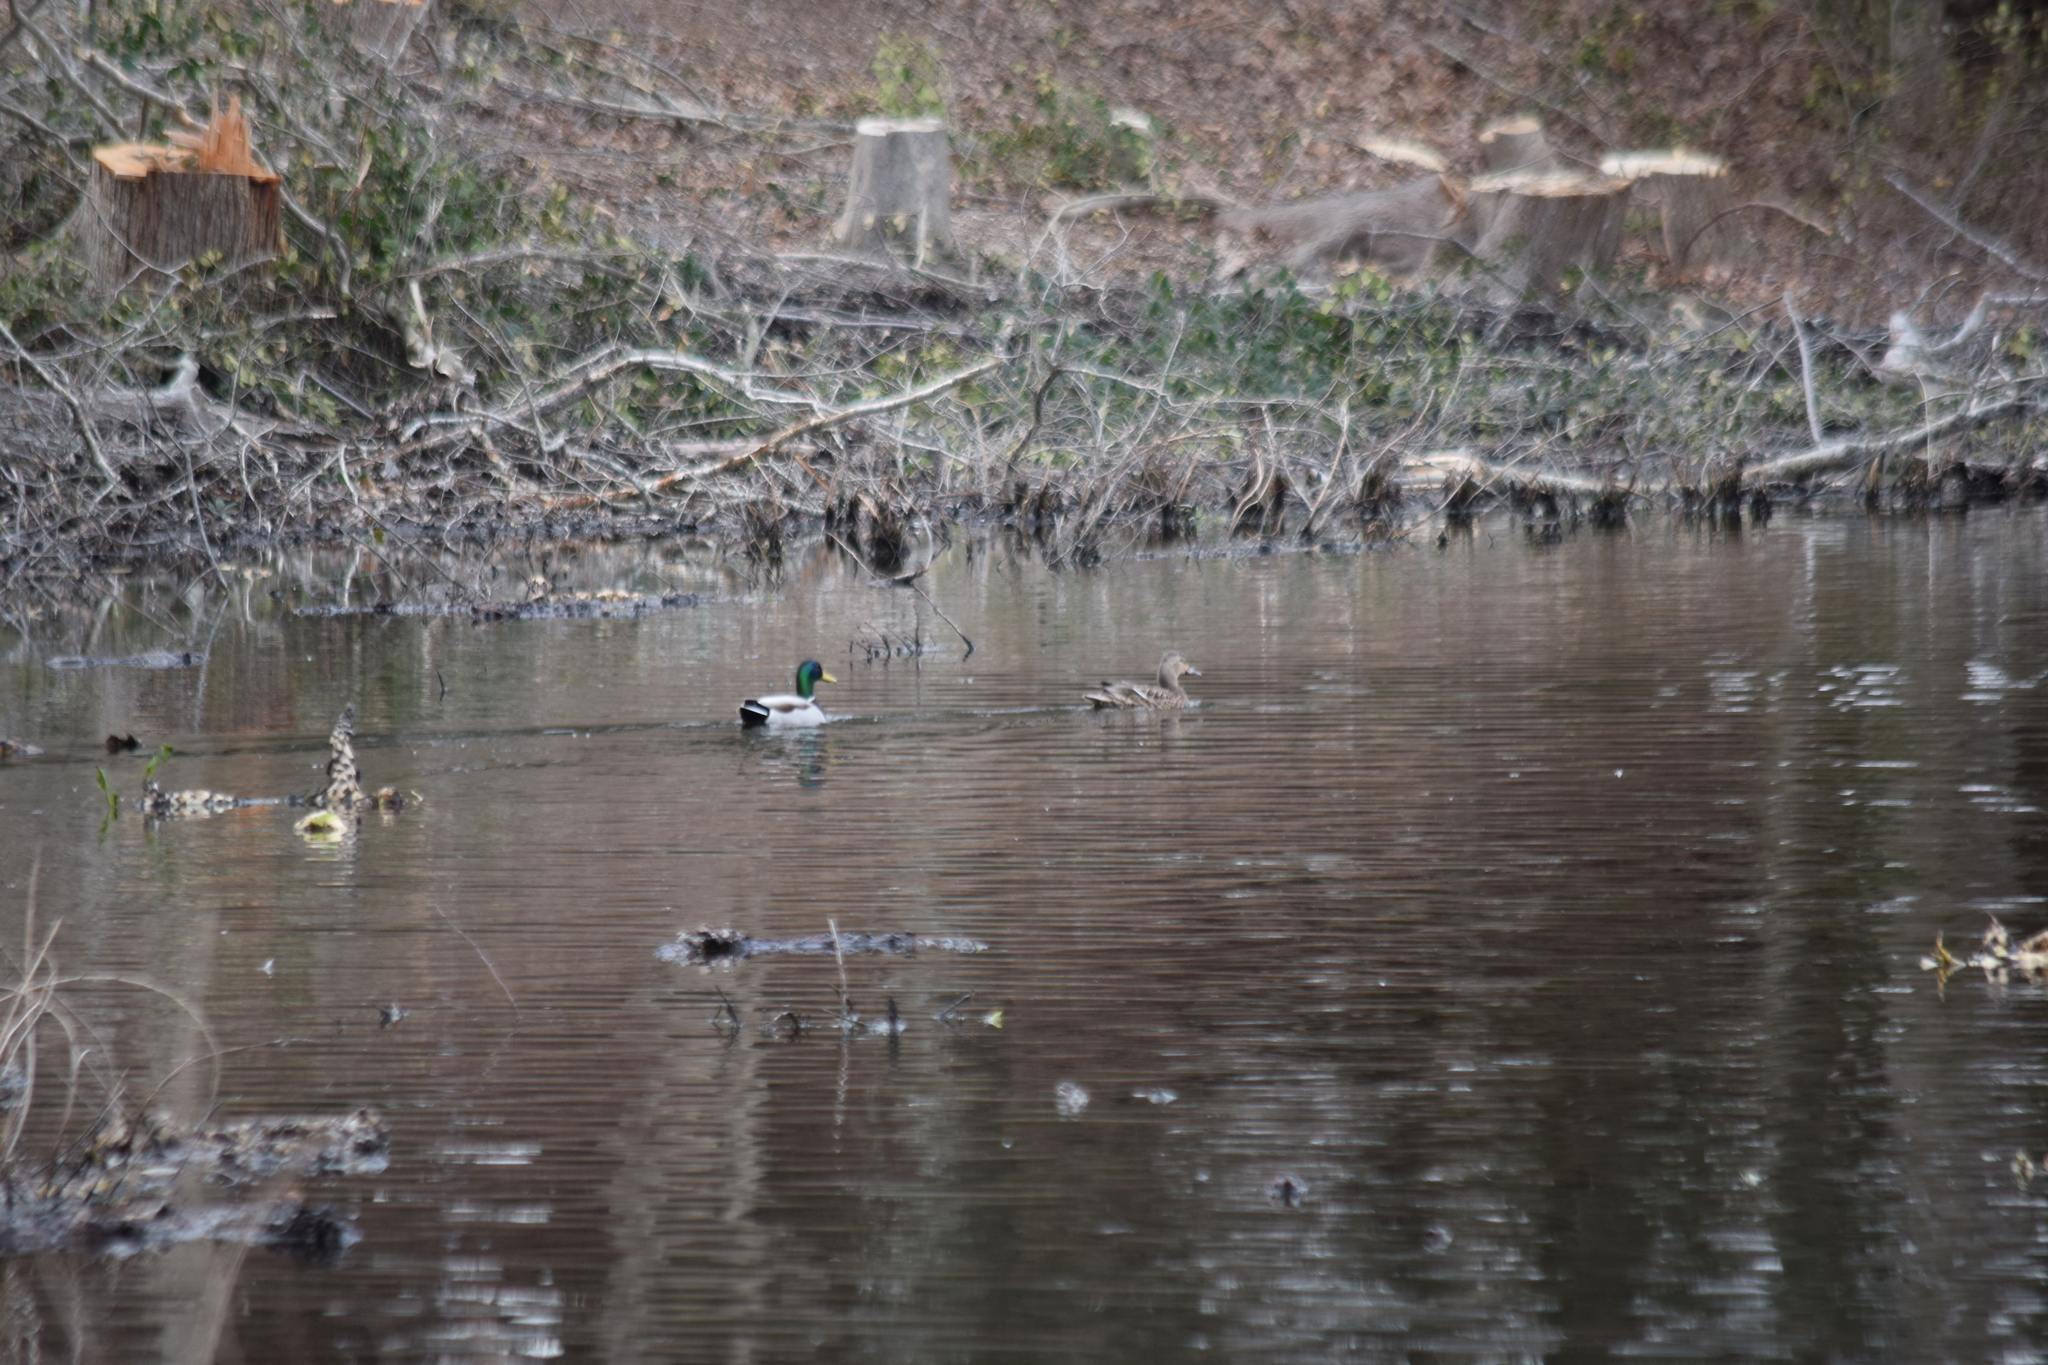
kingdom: Animalia
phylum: Chordata
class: Aves
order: Anseriformes
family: Anatidae
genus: Anas
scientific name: Anas platyrhynchos
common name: Mallard
